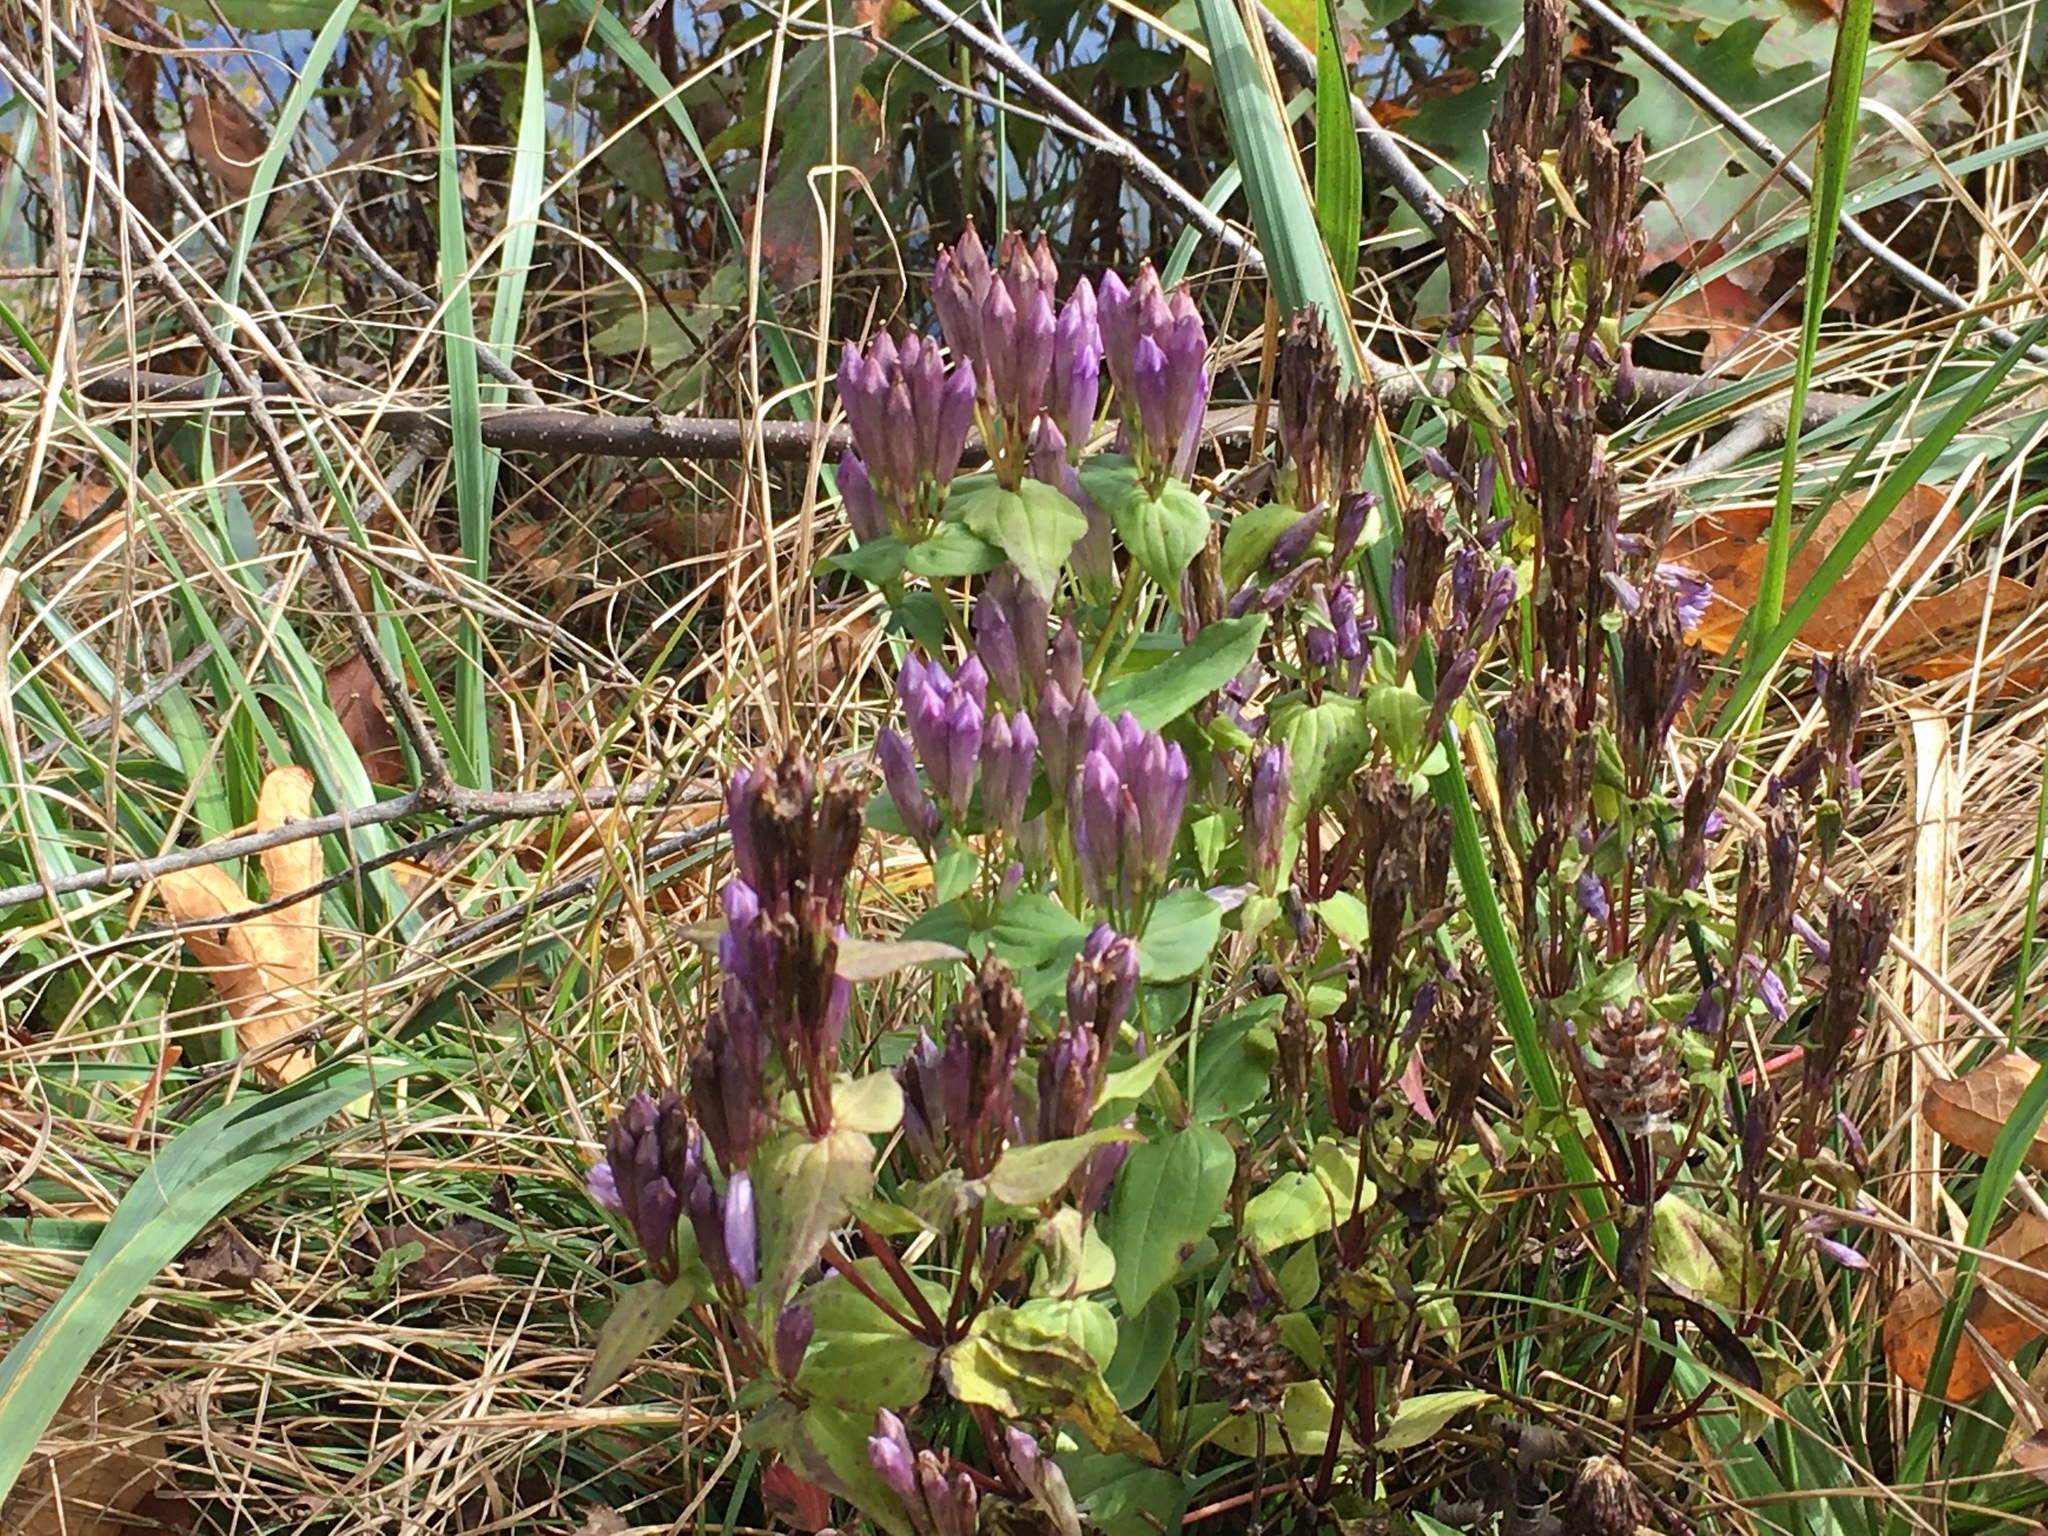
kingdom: Plantae
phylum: Tracheophyta
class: Magnoliopsida
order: Gentianales
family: Gentianaceae
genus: Gentianella
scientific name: Gentianella quinquefolia
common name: Agueweed
